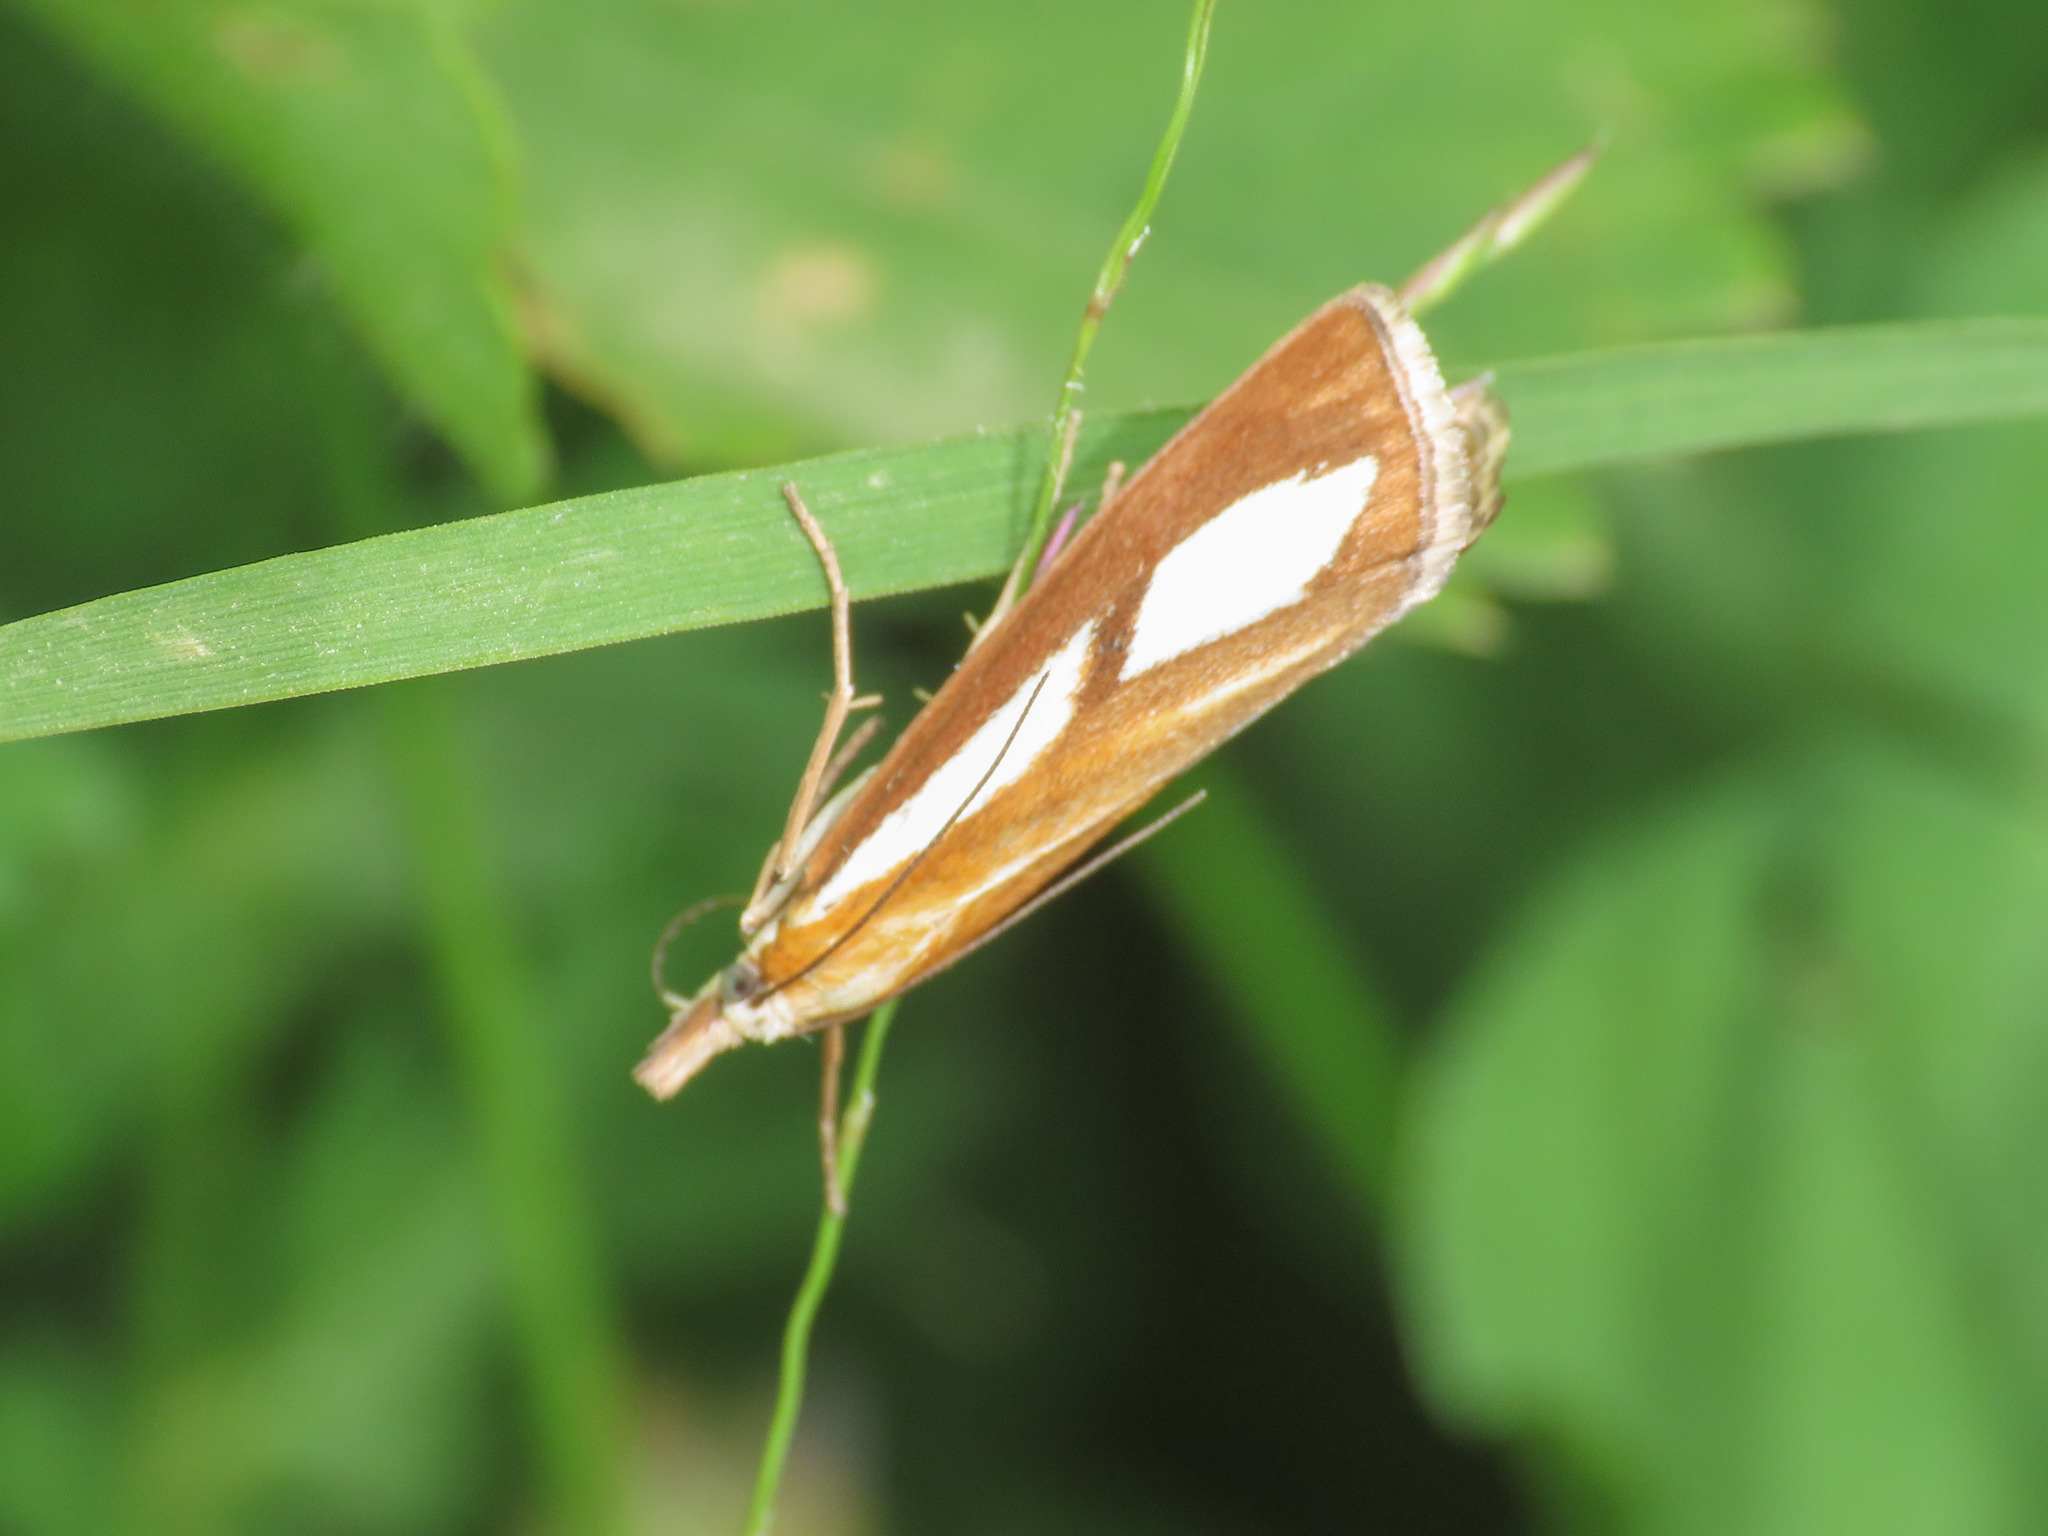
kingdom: Animalia
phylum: Arthropoda
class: Insecta
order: Lepidoptera
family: Crambidae
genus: Catoptria
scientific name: Catoptria conchella
